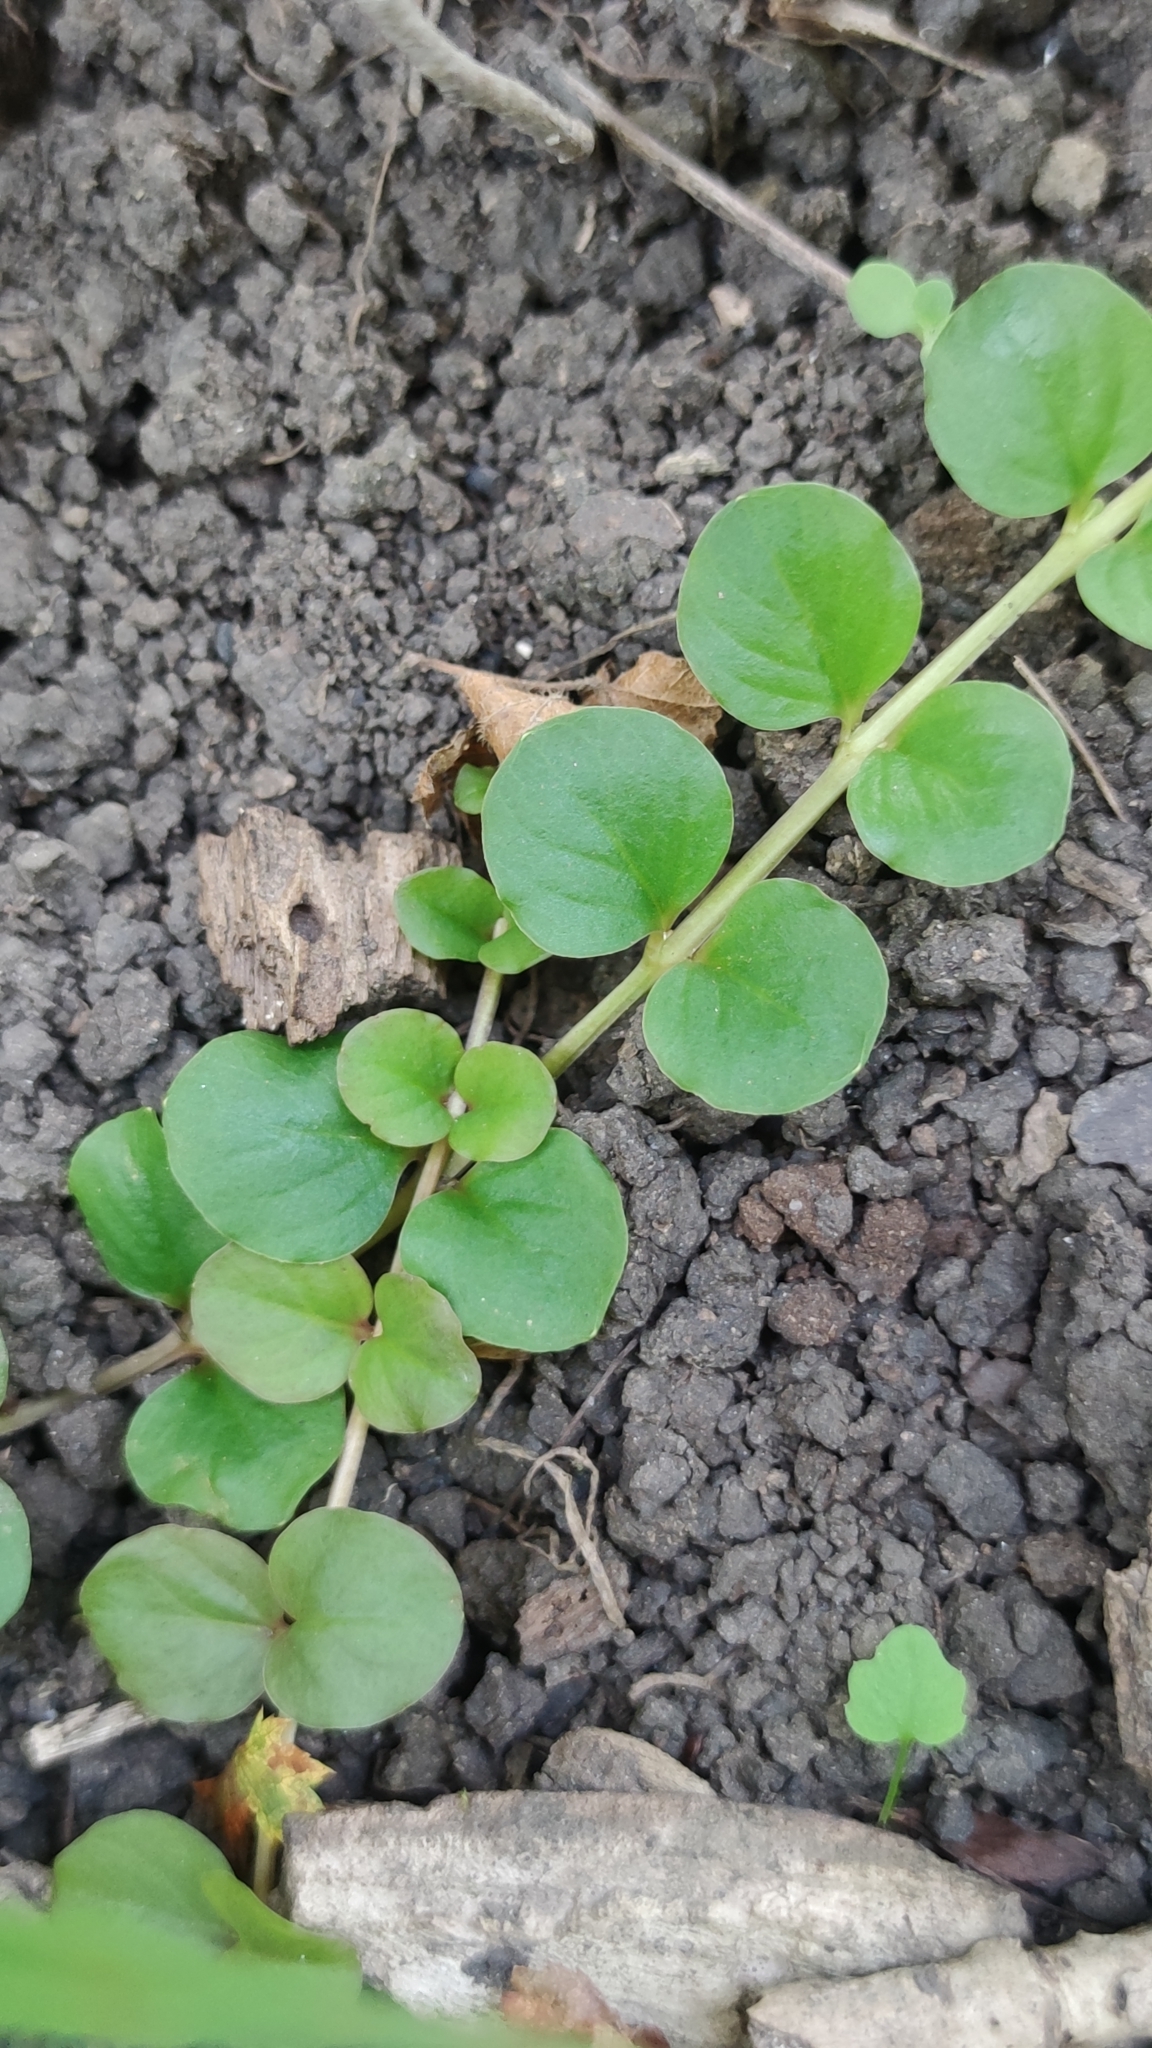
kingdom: Plantae
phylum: Tracheophyta
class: Magnoliopsida
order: Ericales
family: Primulaceae
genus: Lysimachia
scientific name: Lysimachia nummularia
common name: Moneywort
